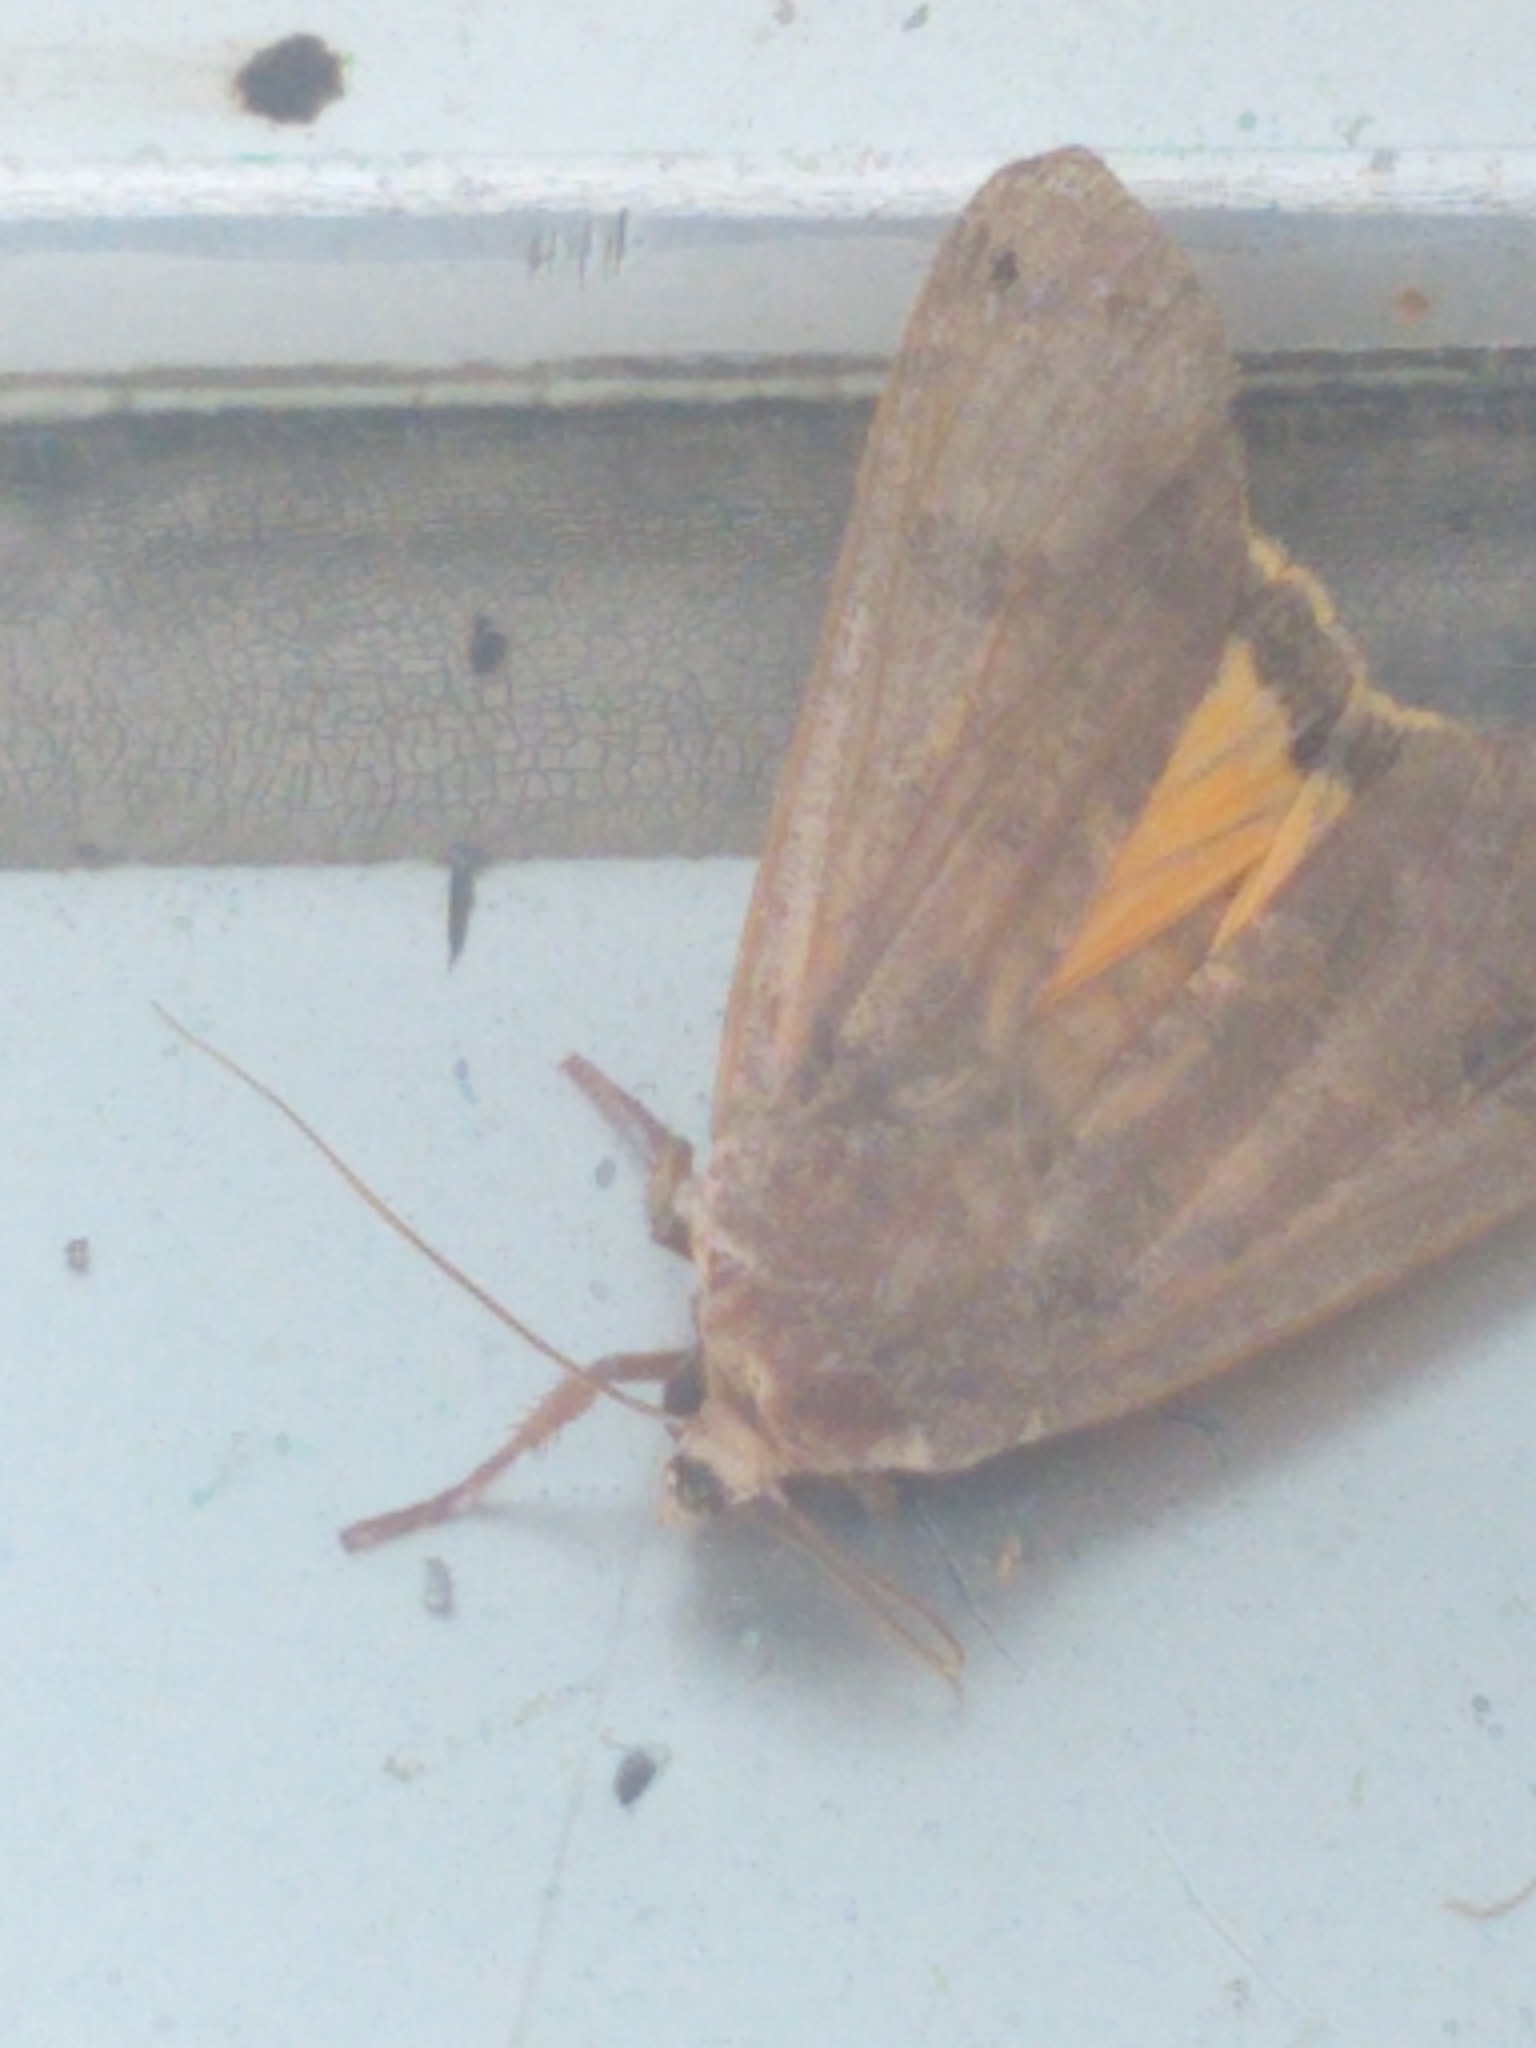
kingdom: Animalia
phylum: Arthropoda
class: Insecta
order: Lepidoptera
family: Noctuidae
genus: Noctua
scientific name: Noctua pronuba
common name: Large yellow underwing
